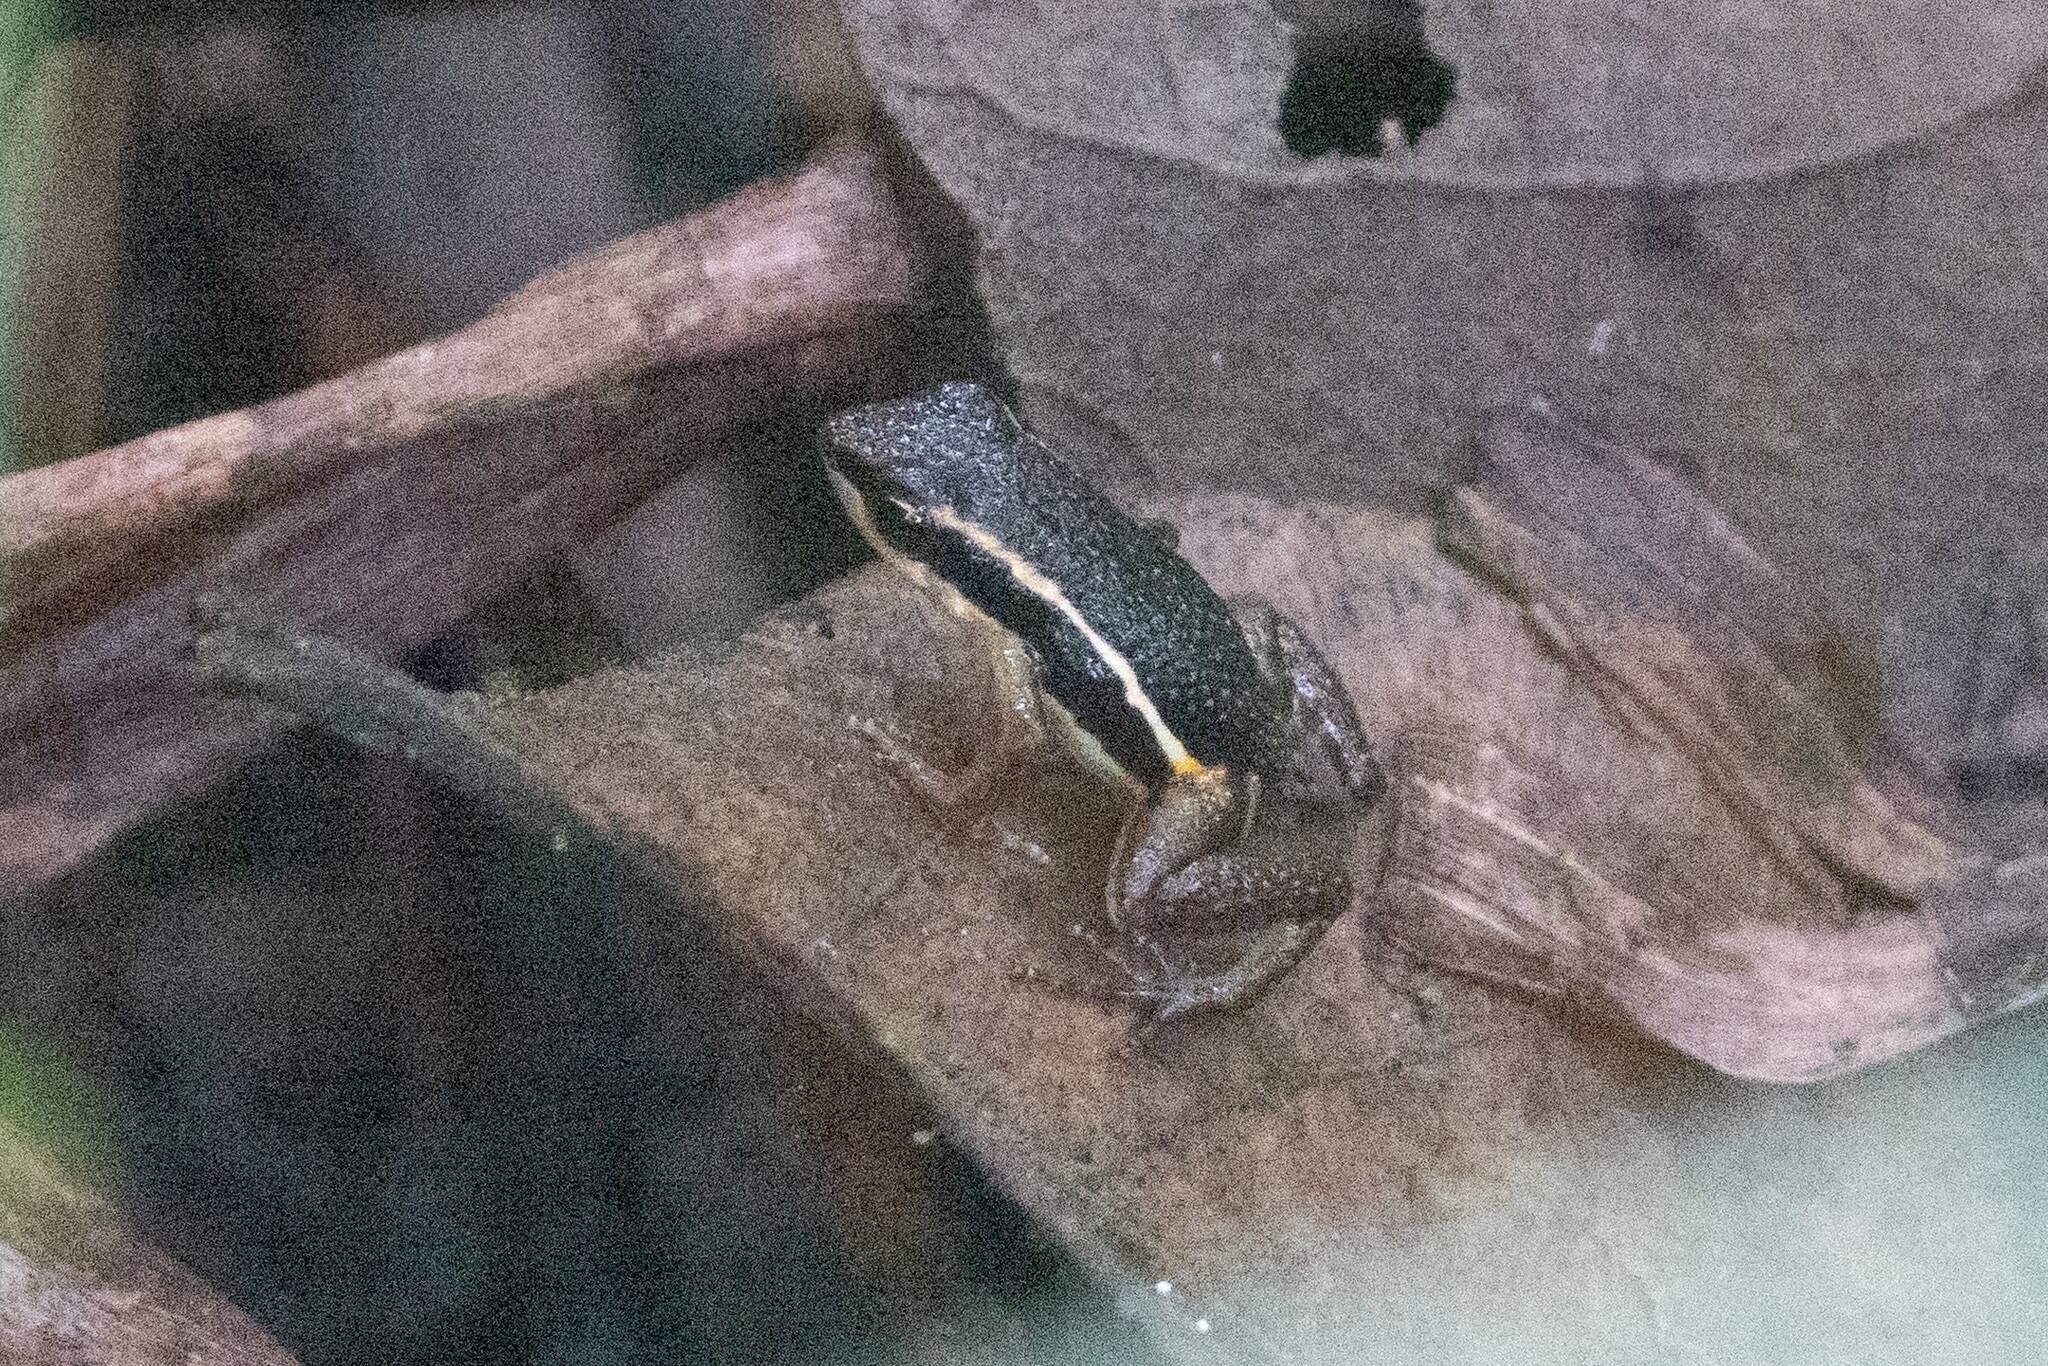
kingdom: Animalia
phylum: Chordata
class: Amphibia
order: Anura
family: Dendrobatidae
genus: Epipedobates
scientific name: Epipedobates machalilla
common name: Machalilla rocket frog
